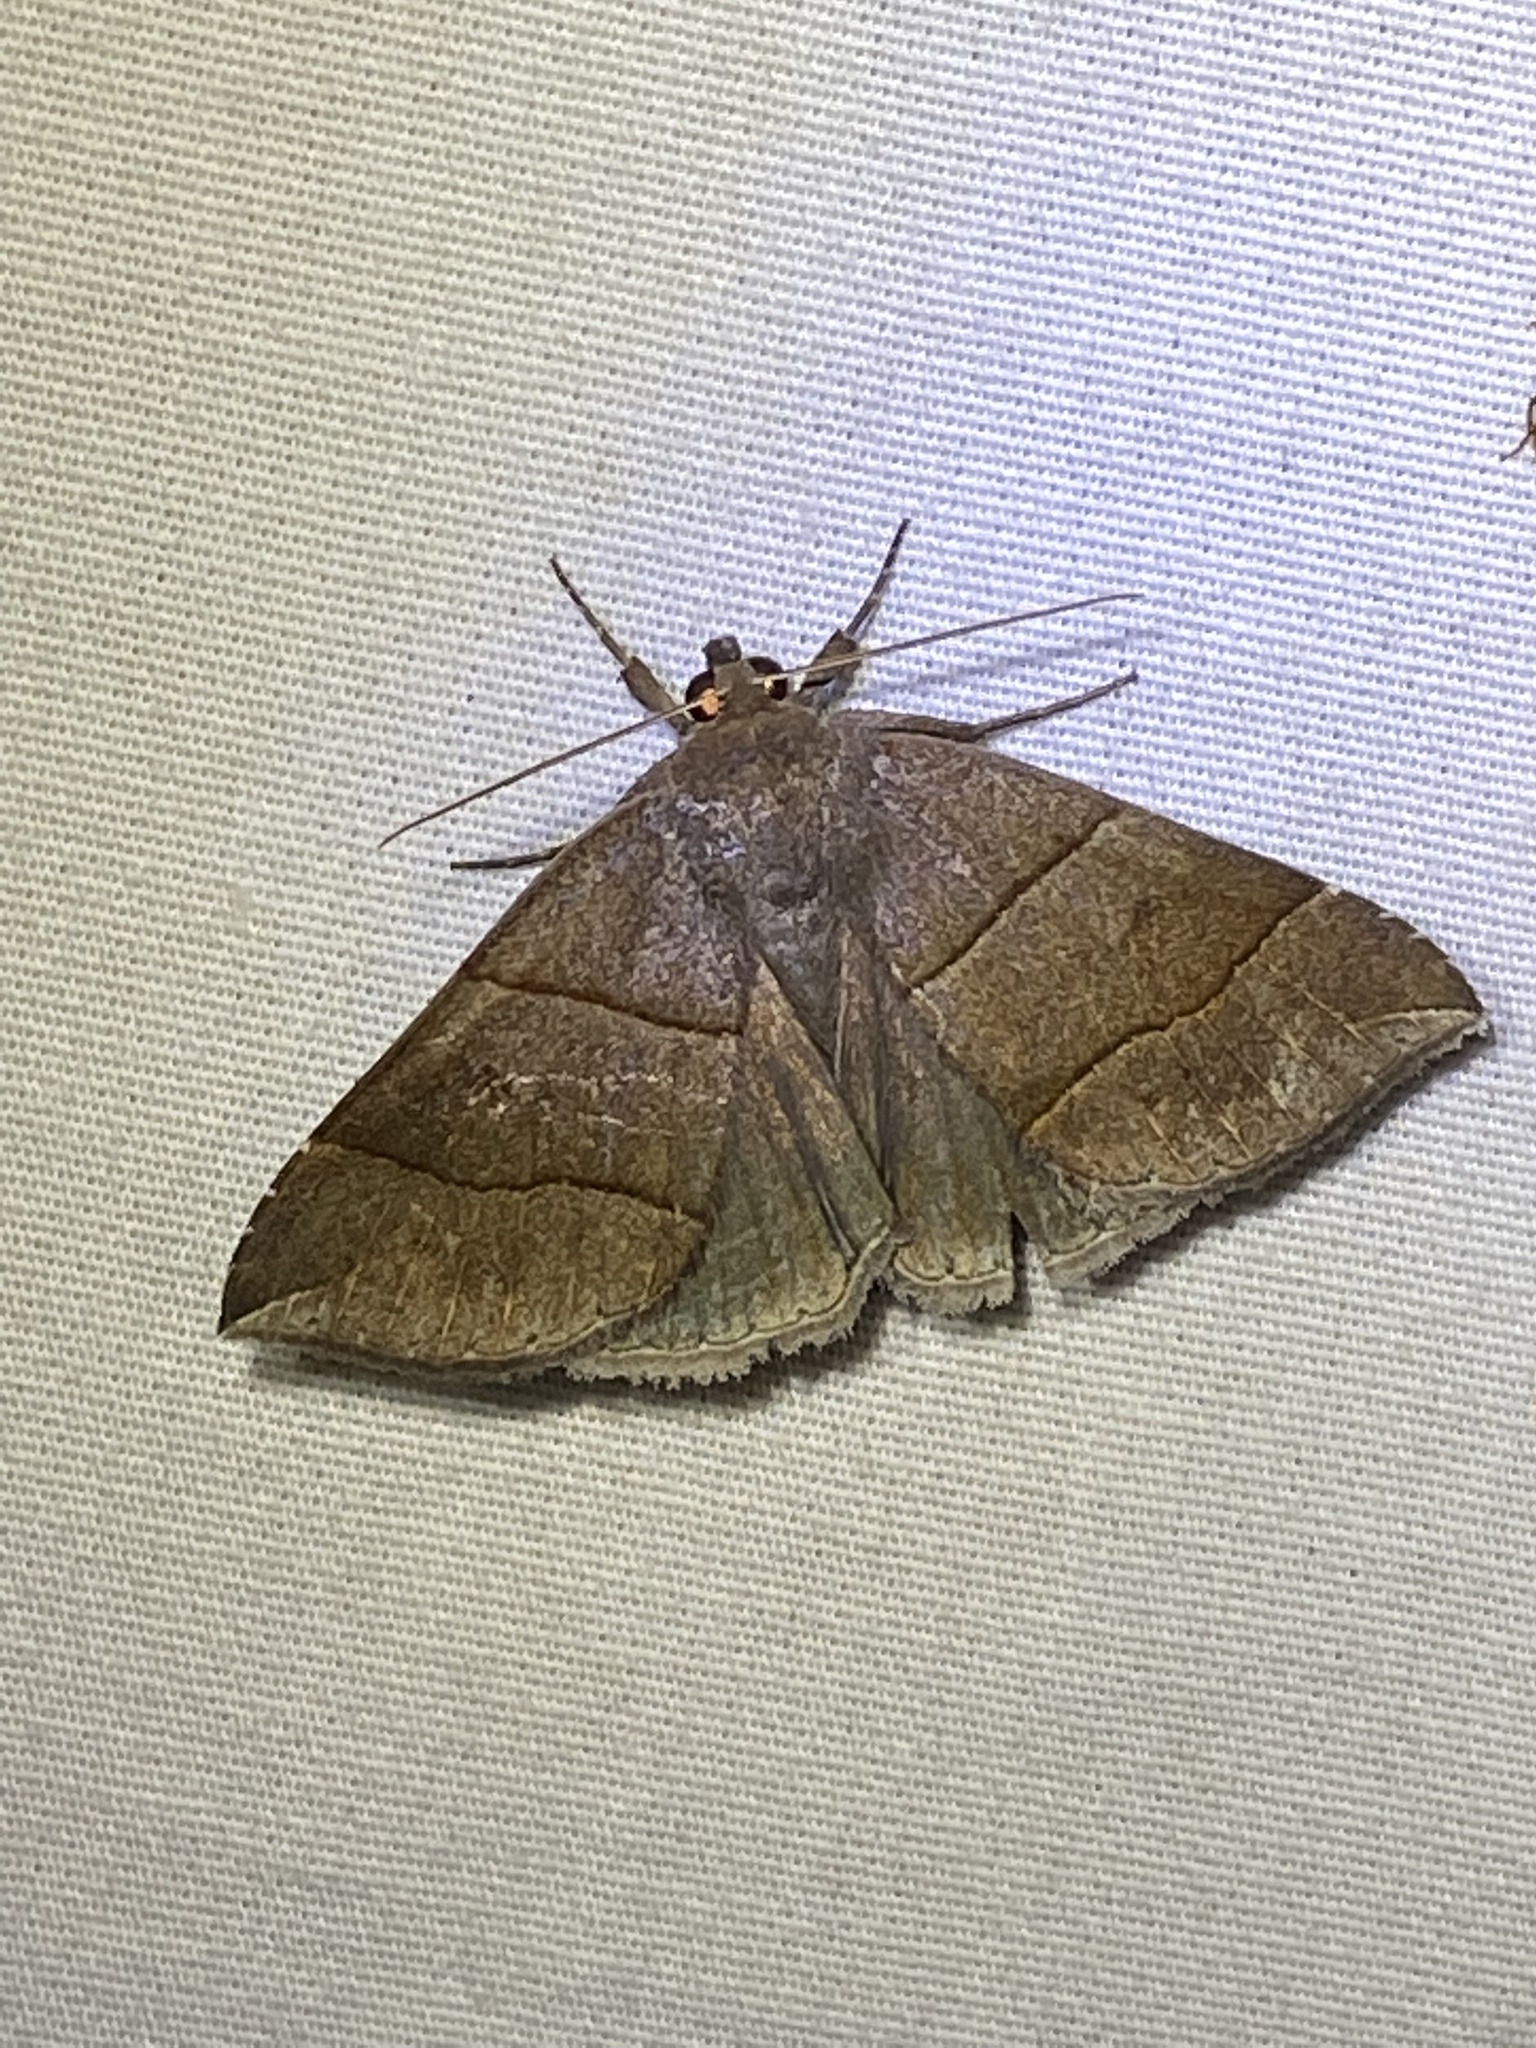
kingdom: Animalia
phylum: Arthropoda
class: Insecta
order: Lepidoptera
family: Erebidae
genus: Parallelia
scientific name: Parallelia bistriaris
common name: Maple looper moth
